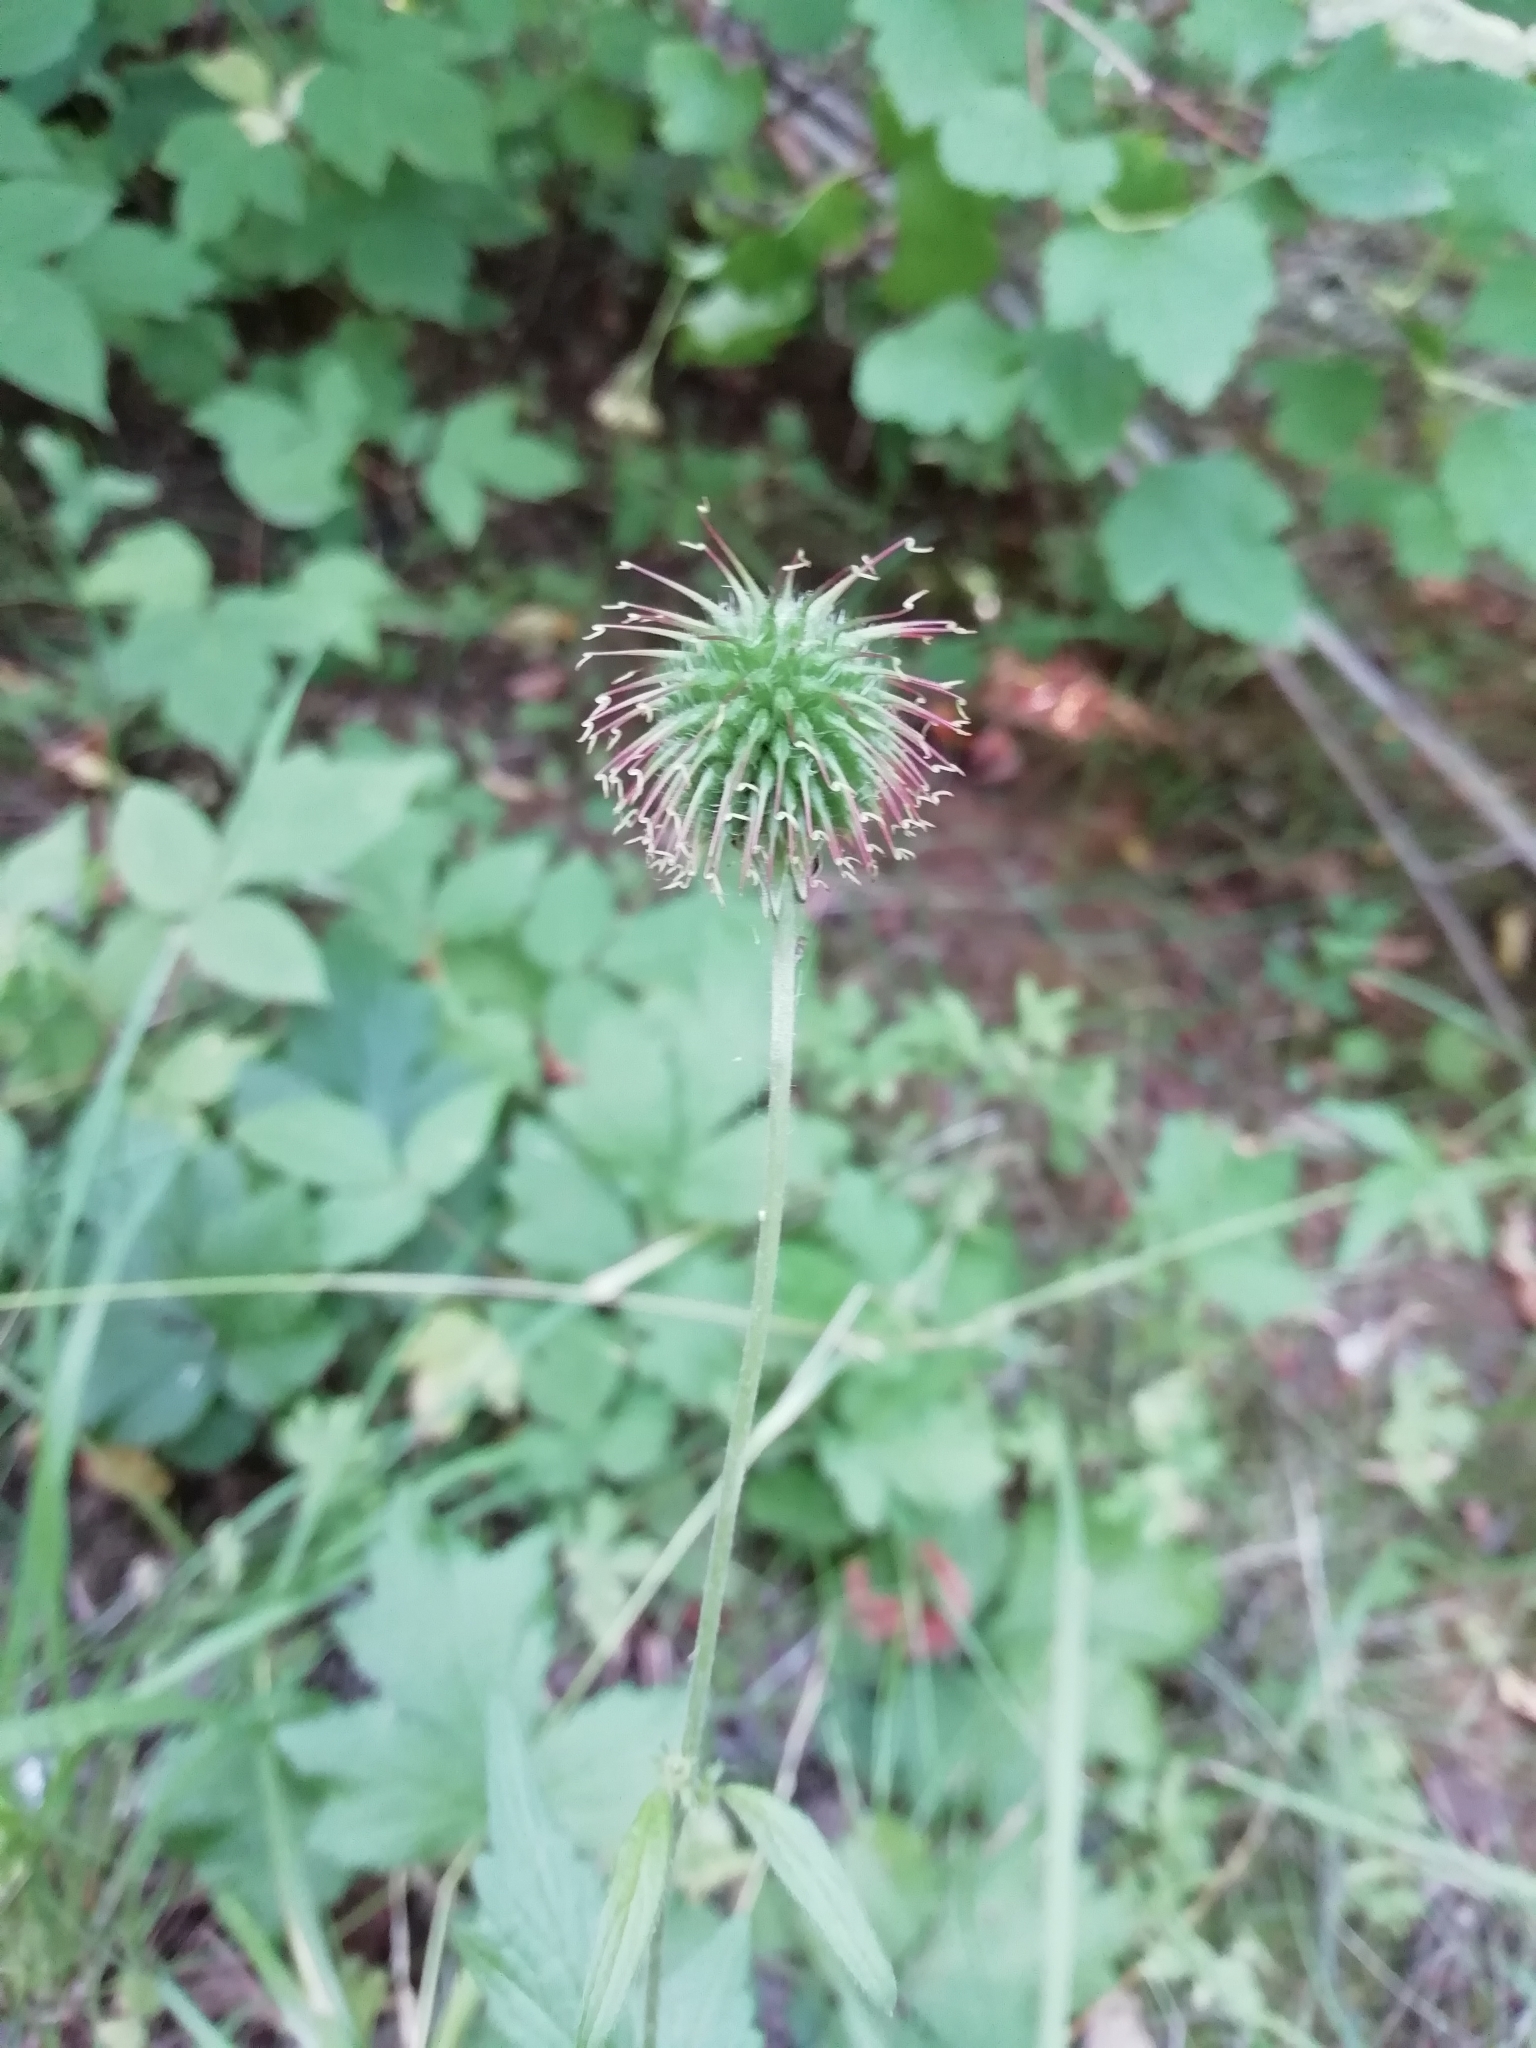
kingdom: Plantae
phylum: Tracheophyta
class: Magnoliopsida
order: Rosales
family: Rosaceae
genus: Geum
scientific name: Geum urbanum
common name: Wood avens
